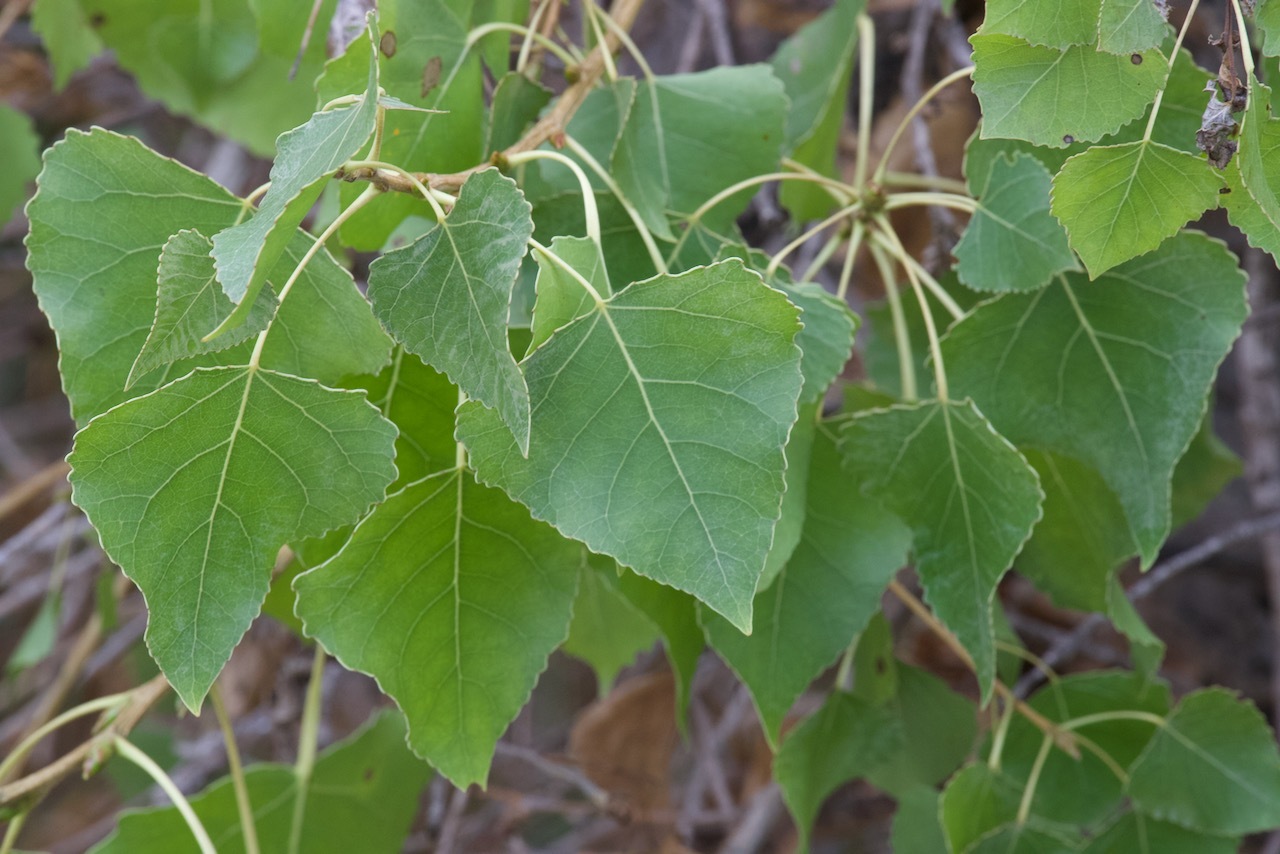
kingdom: Plantae
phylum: Tracheophyta
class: Magnoliopsida
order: Malpighiales
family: Salicaceae
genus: Populus
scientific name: Populus fremontii
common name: Fremont's cottonwood
